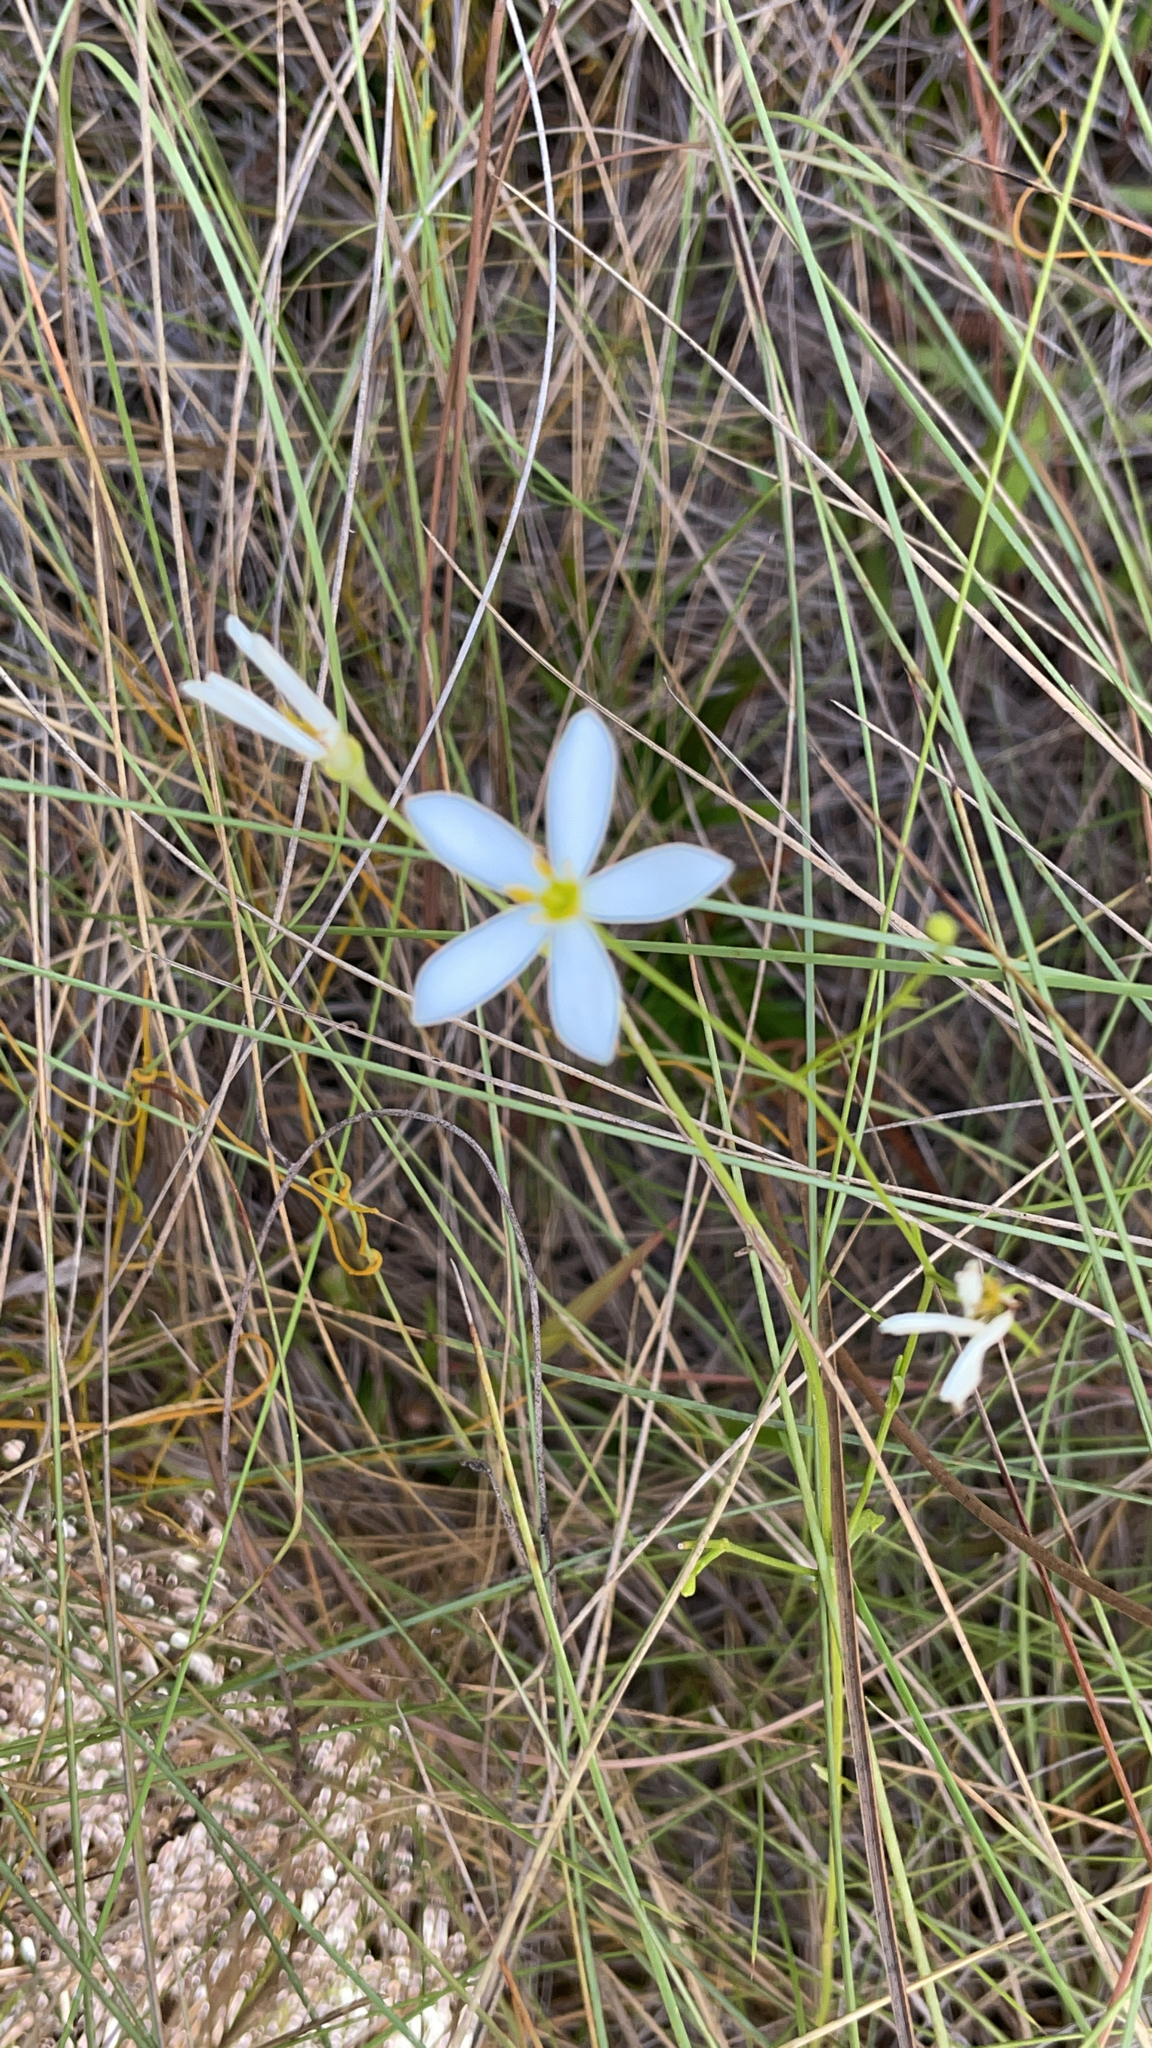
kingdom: Plantae
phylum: Tracheophyta
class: Magnoliopsida
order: Gentianales
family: Gentianaceae
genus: Sabatia
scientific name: Sabatia brevifolia
